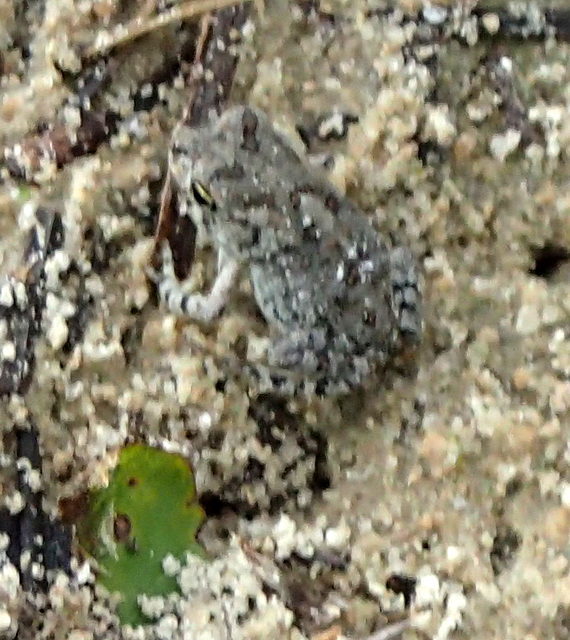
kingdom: Animalia
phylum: Chordata
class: Amphibia
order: Anura
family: Bufonidae
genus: Anaxyrus
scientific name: Anaxyrus terrestris
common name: Southern toad
